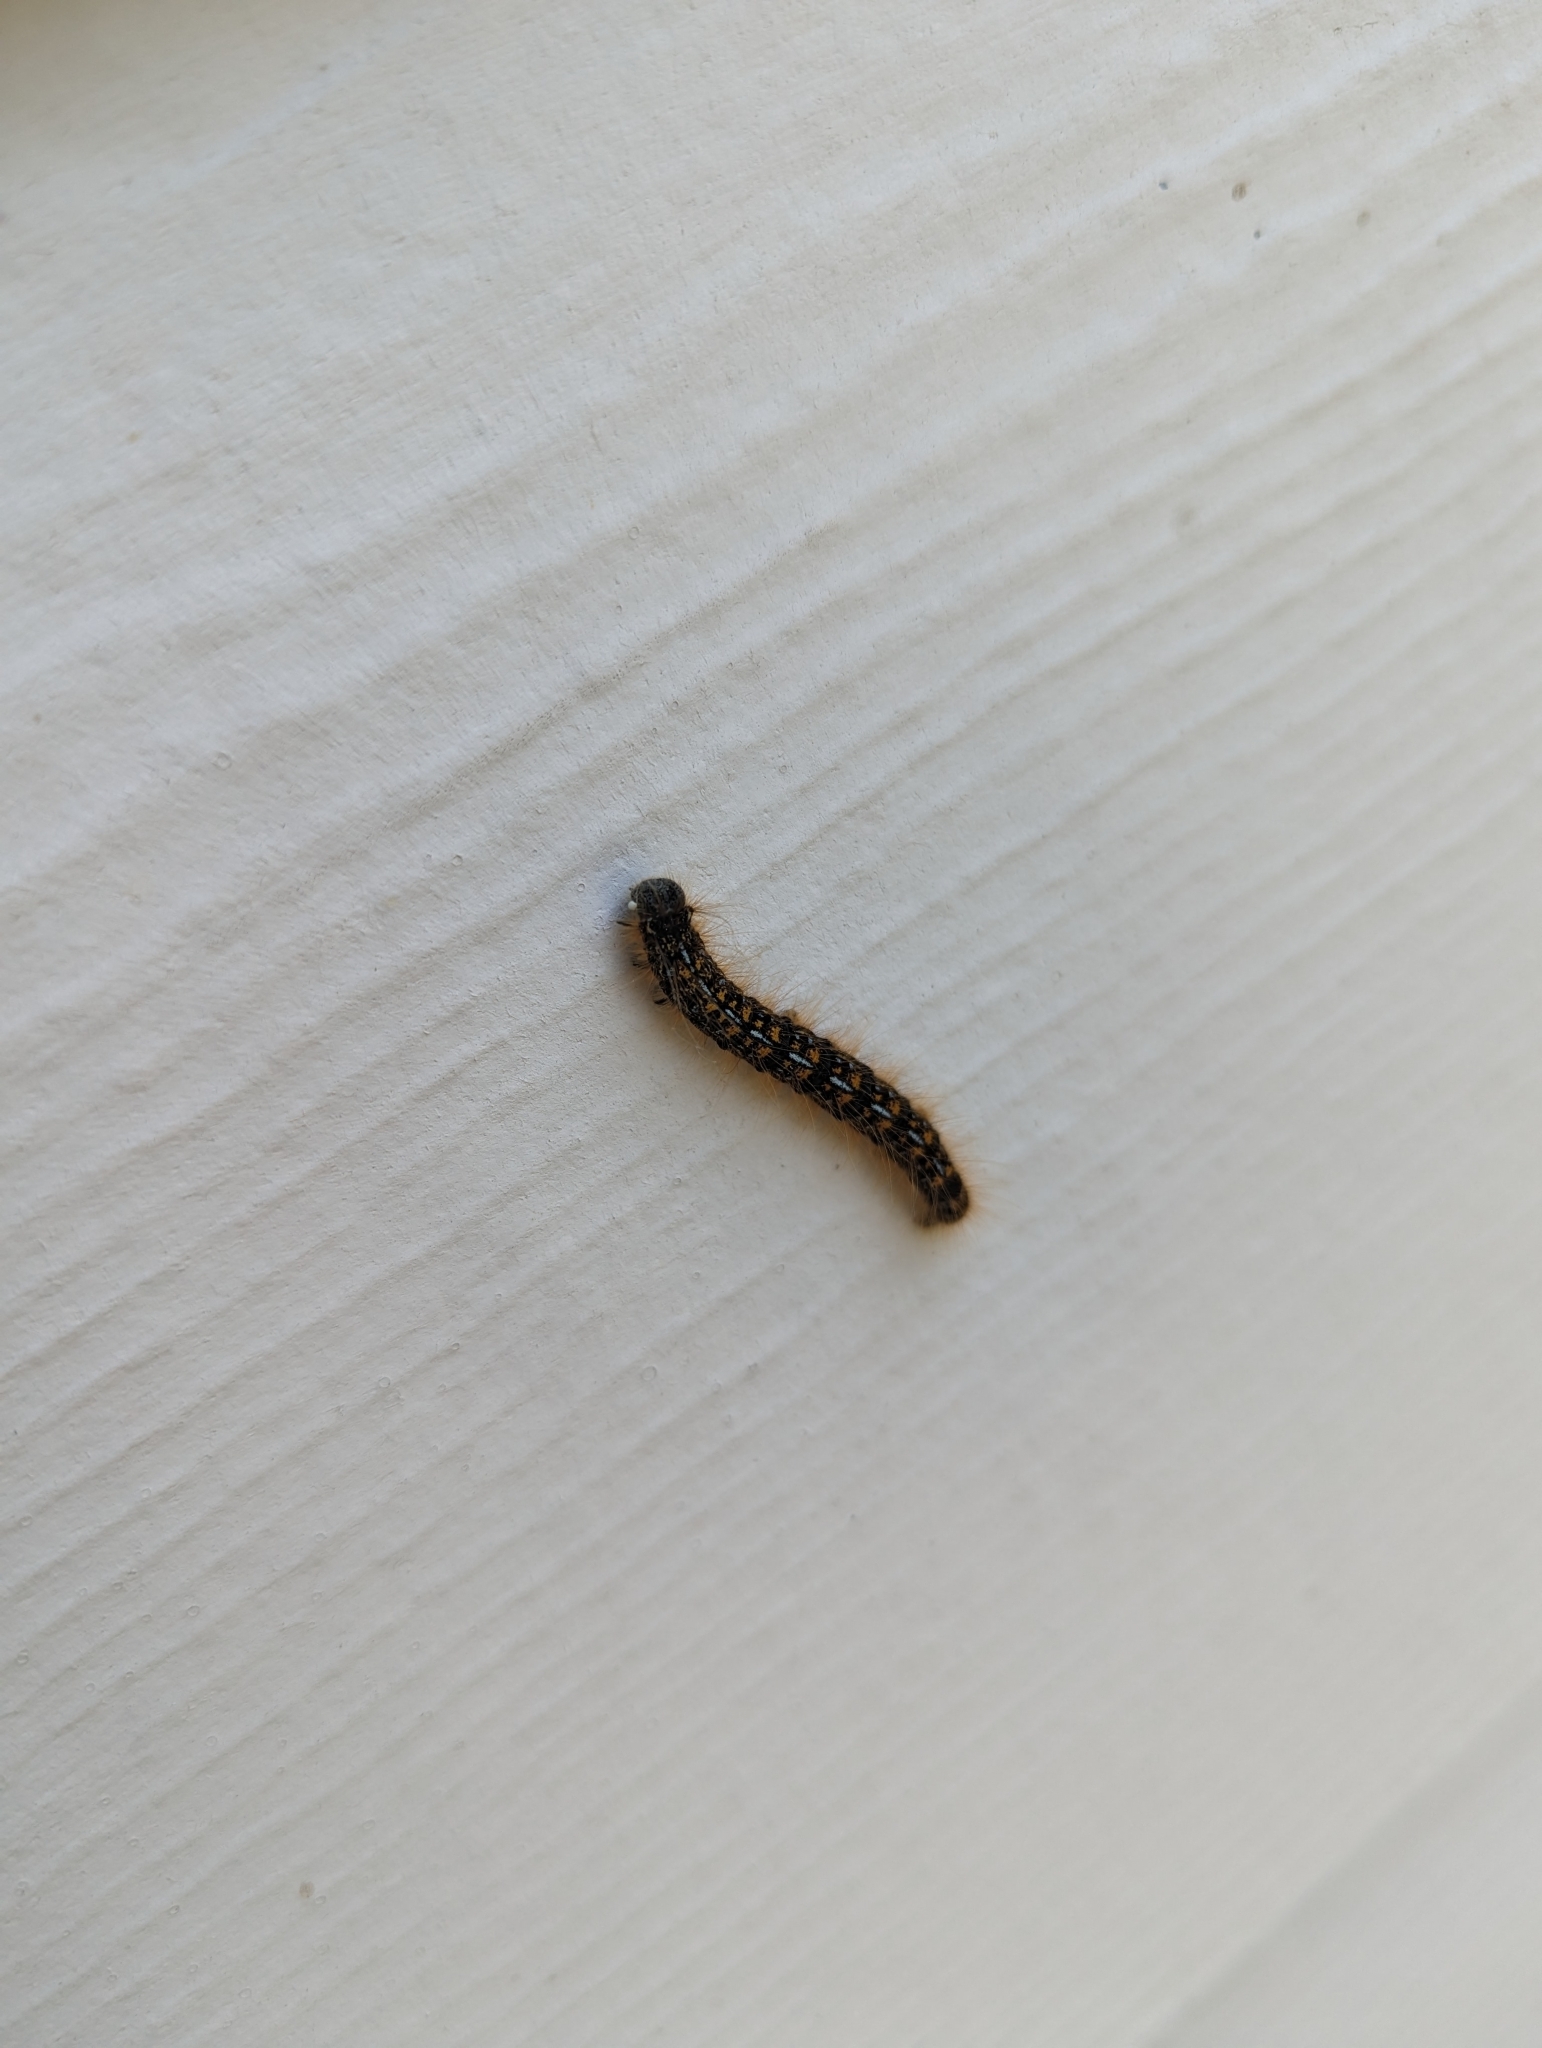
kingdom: Animalia
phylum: Arthropoda
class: Insecta
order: Lepidoptera
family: Lasiocampidae
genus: Malacosoma
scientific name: Malacosoma californica
